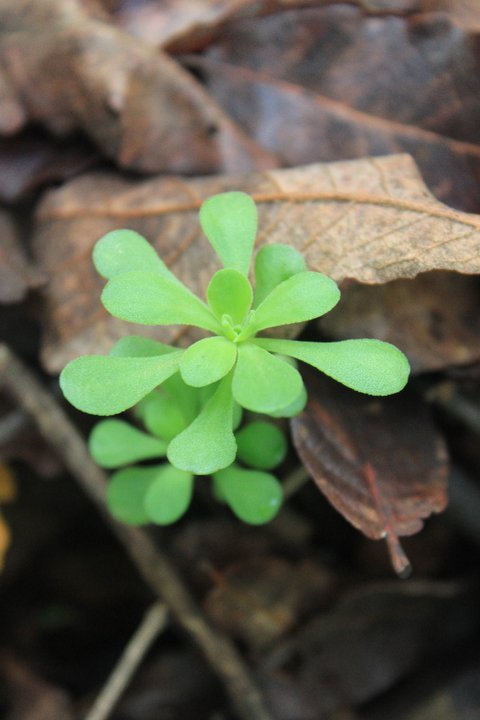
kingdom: Plantae
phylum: Tracheophyta
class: Magnoliopsida
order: Saxifragales
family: Crassulaceae
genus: Sedum
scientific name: Sedum quevae
